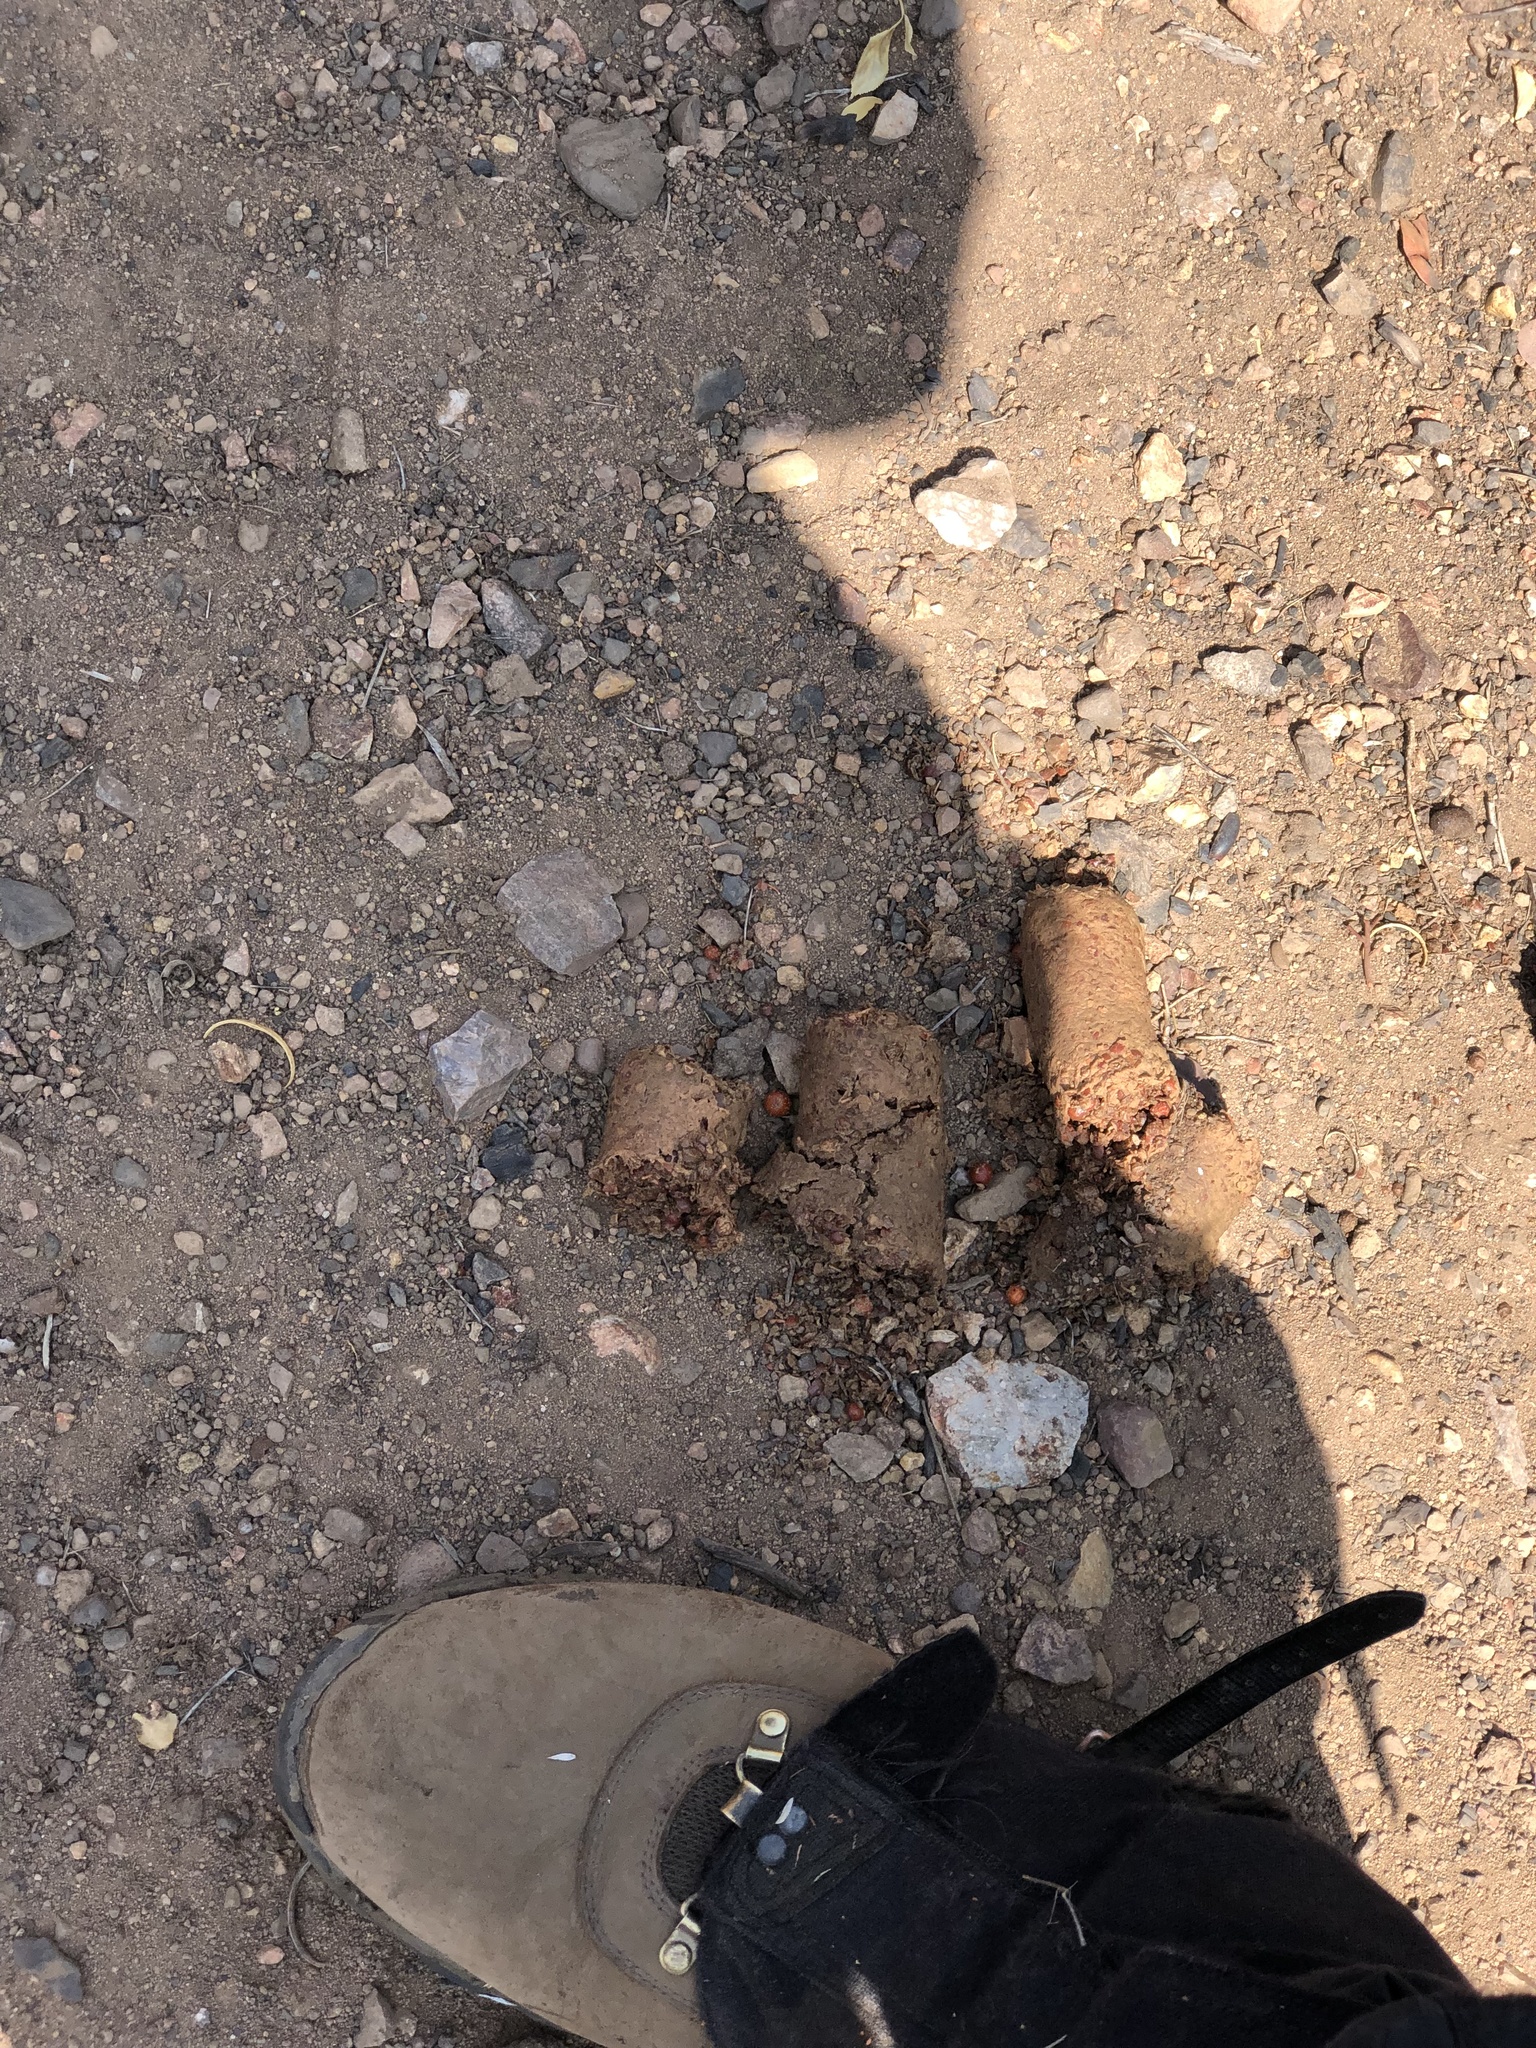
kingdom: Animalia
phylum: Chordata
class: Mammalia
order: Carnivora
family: Ursidae
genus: Ursus
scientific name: Ursus americanus
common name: American black bear
